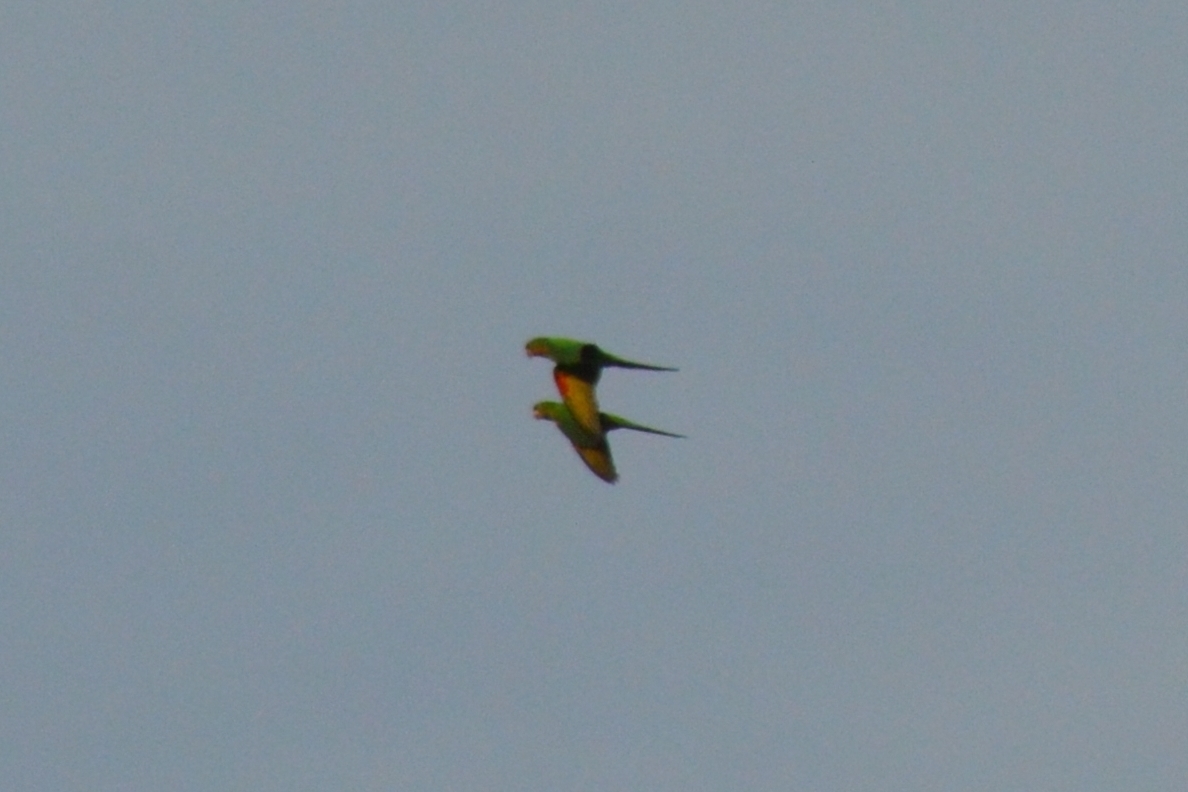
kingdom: Animalia
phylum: Chordata
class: Aves
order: Psittaciformes
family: Psittacidae
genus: Aratinga
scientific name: Aratinga leucophthalma
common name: White-eyed parakeet
